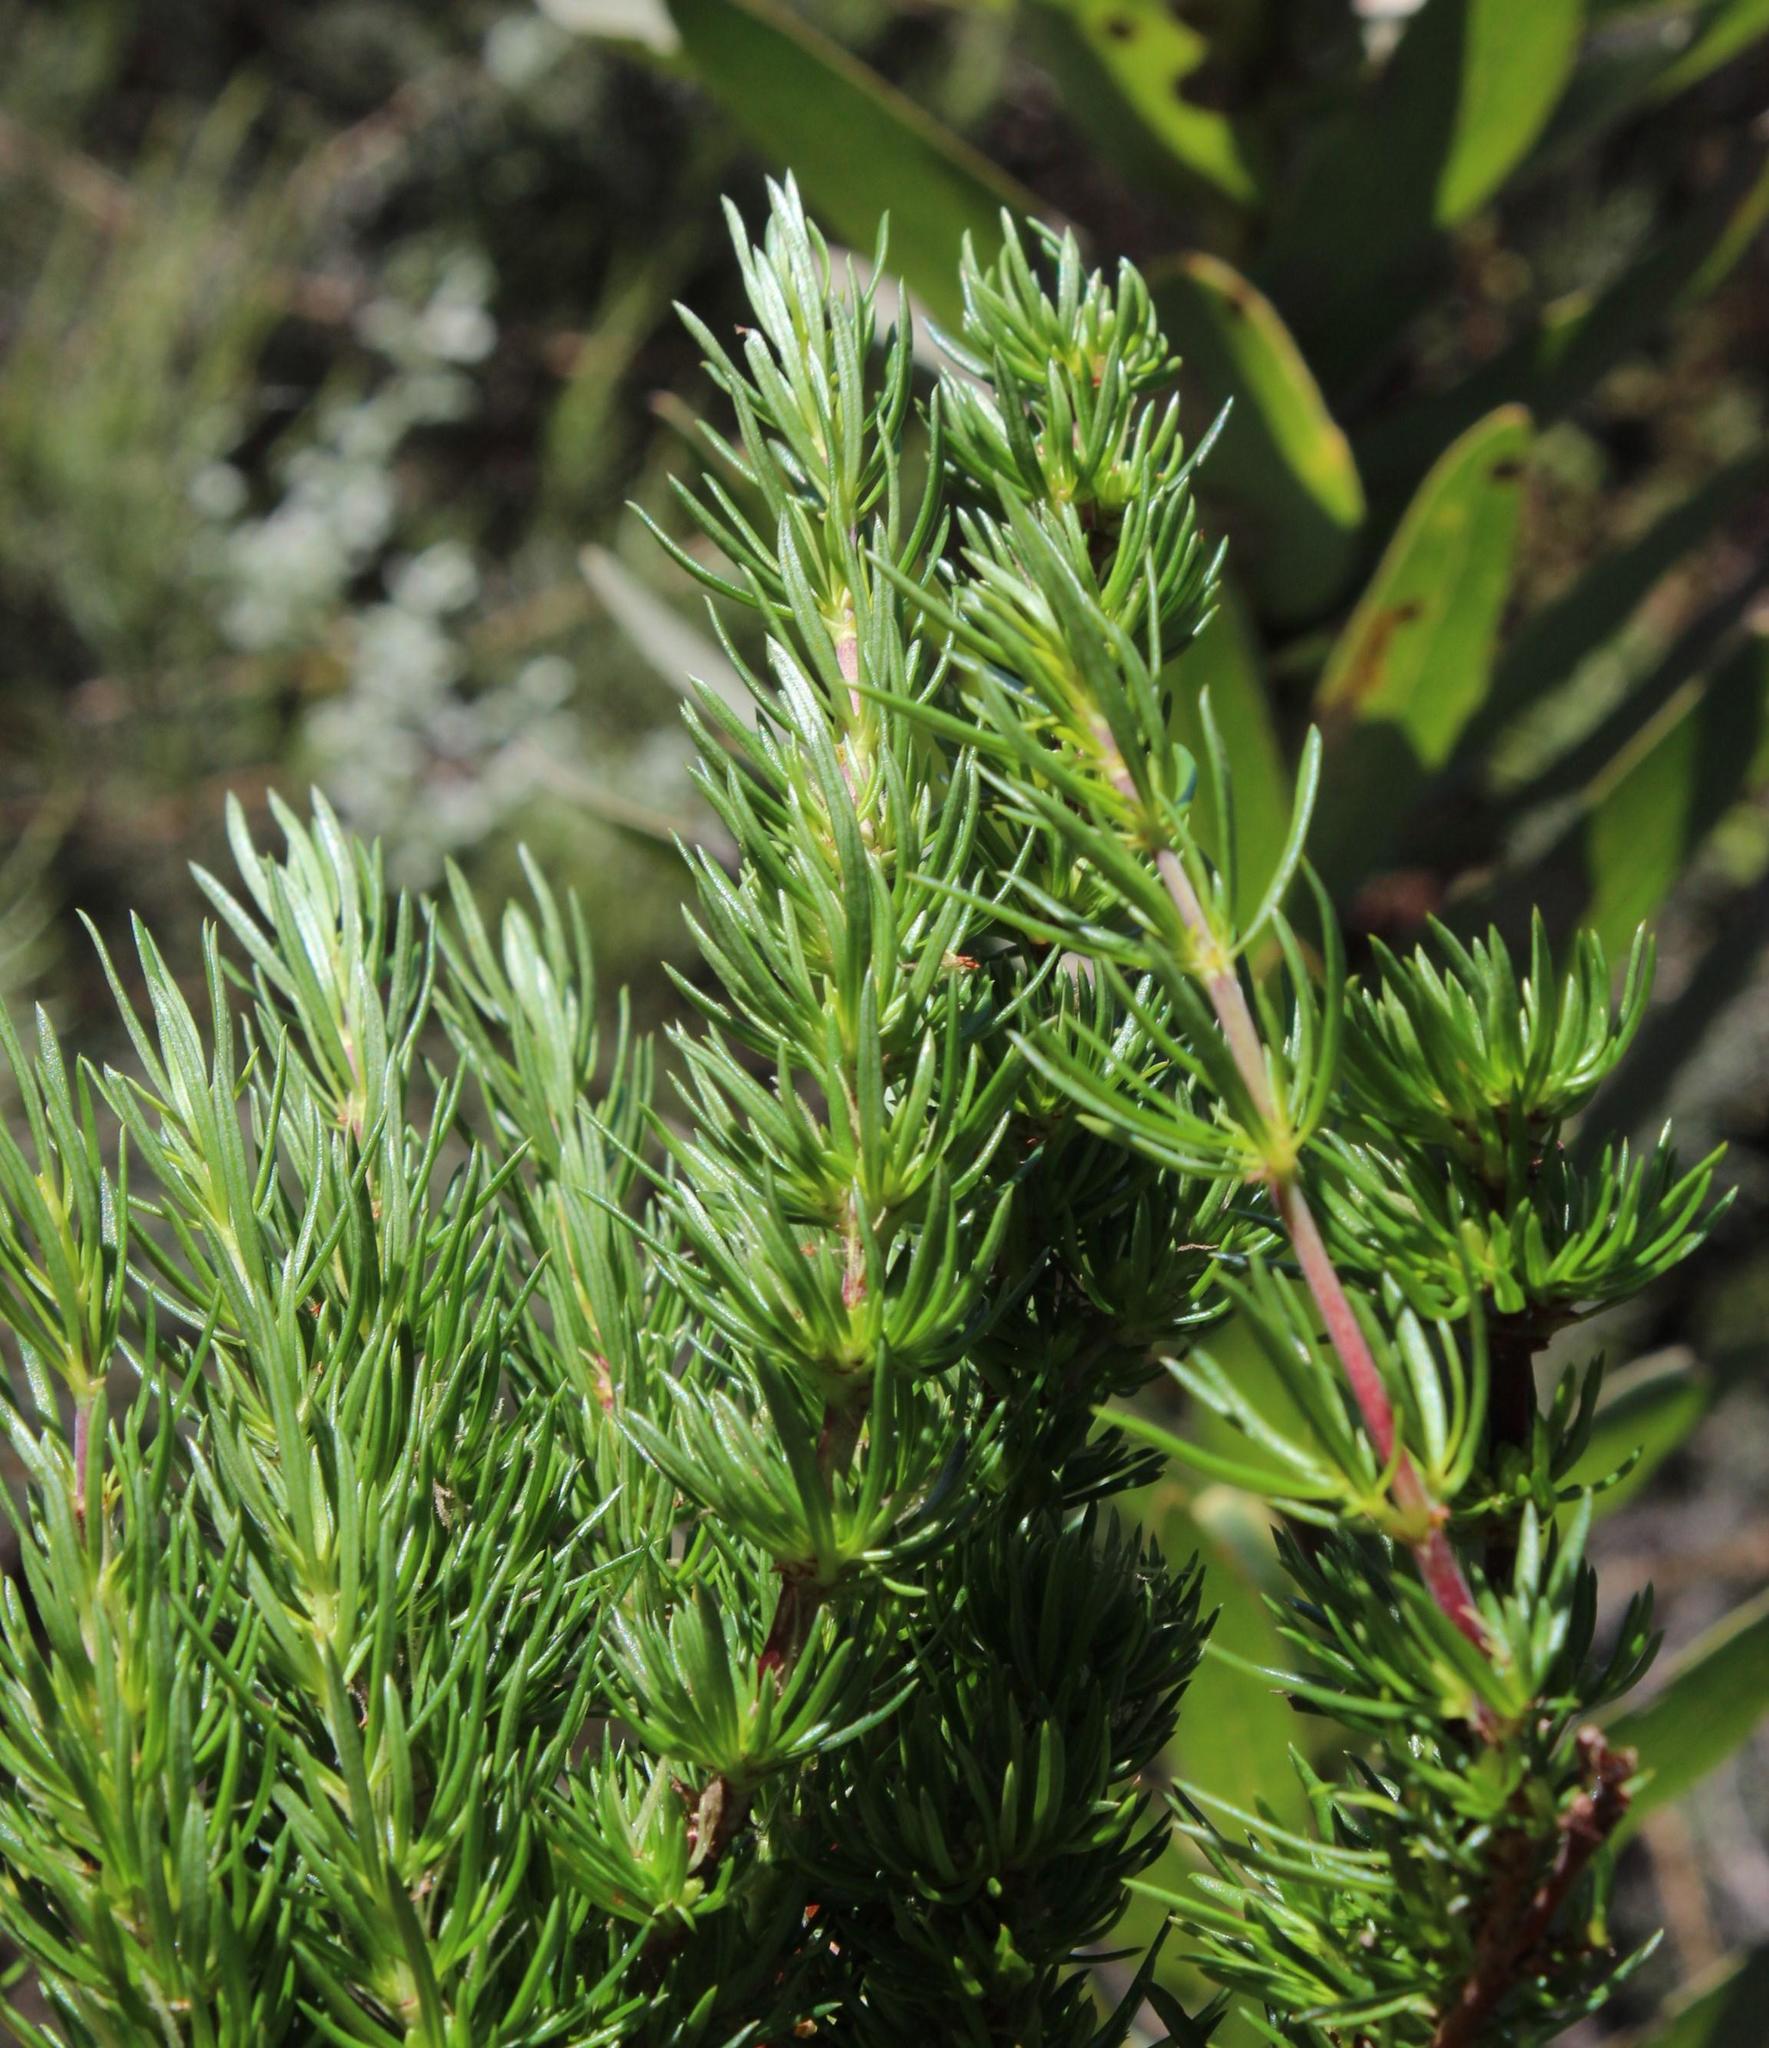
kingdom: Plantae
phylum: Tracheophyta
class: Magnoliopsida
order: Gentianales
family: Rubiaceae
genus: Anthospermum
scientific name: Anthospermum aethiopicum
